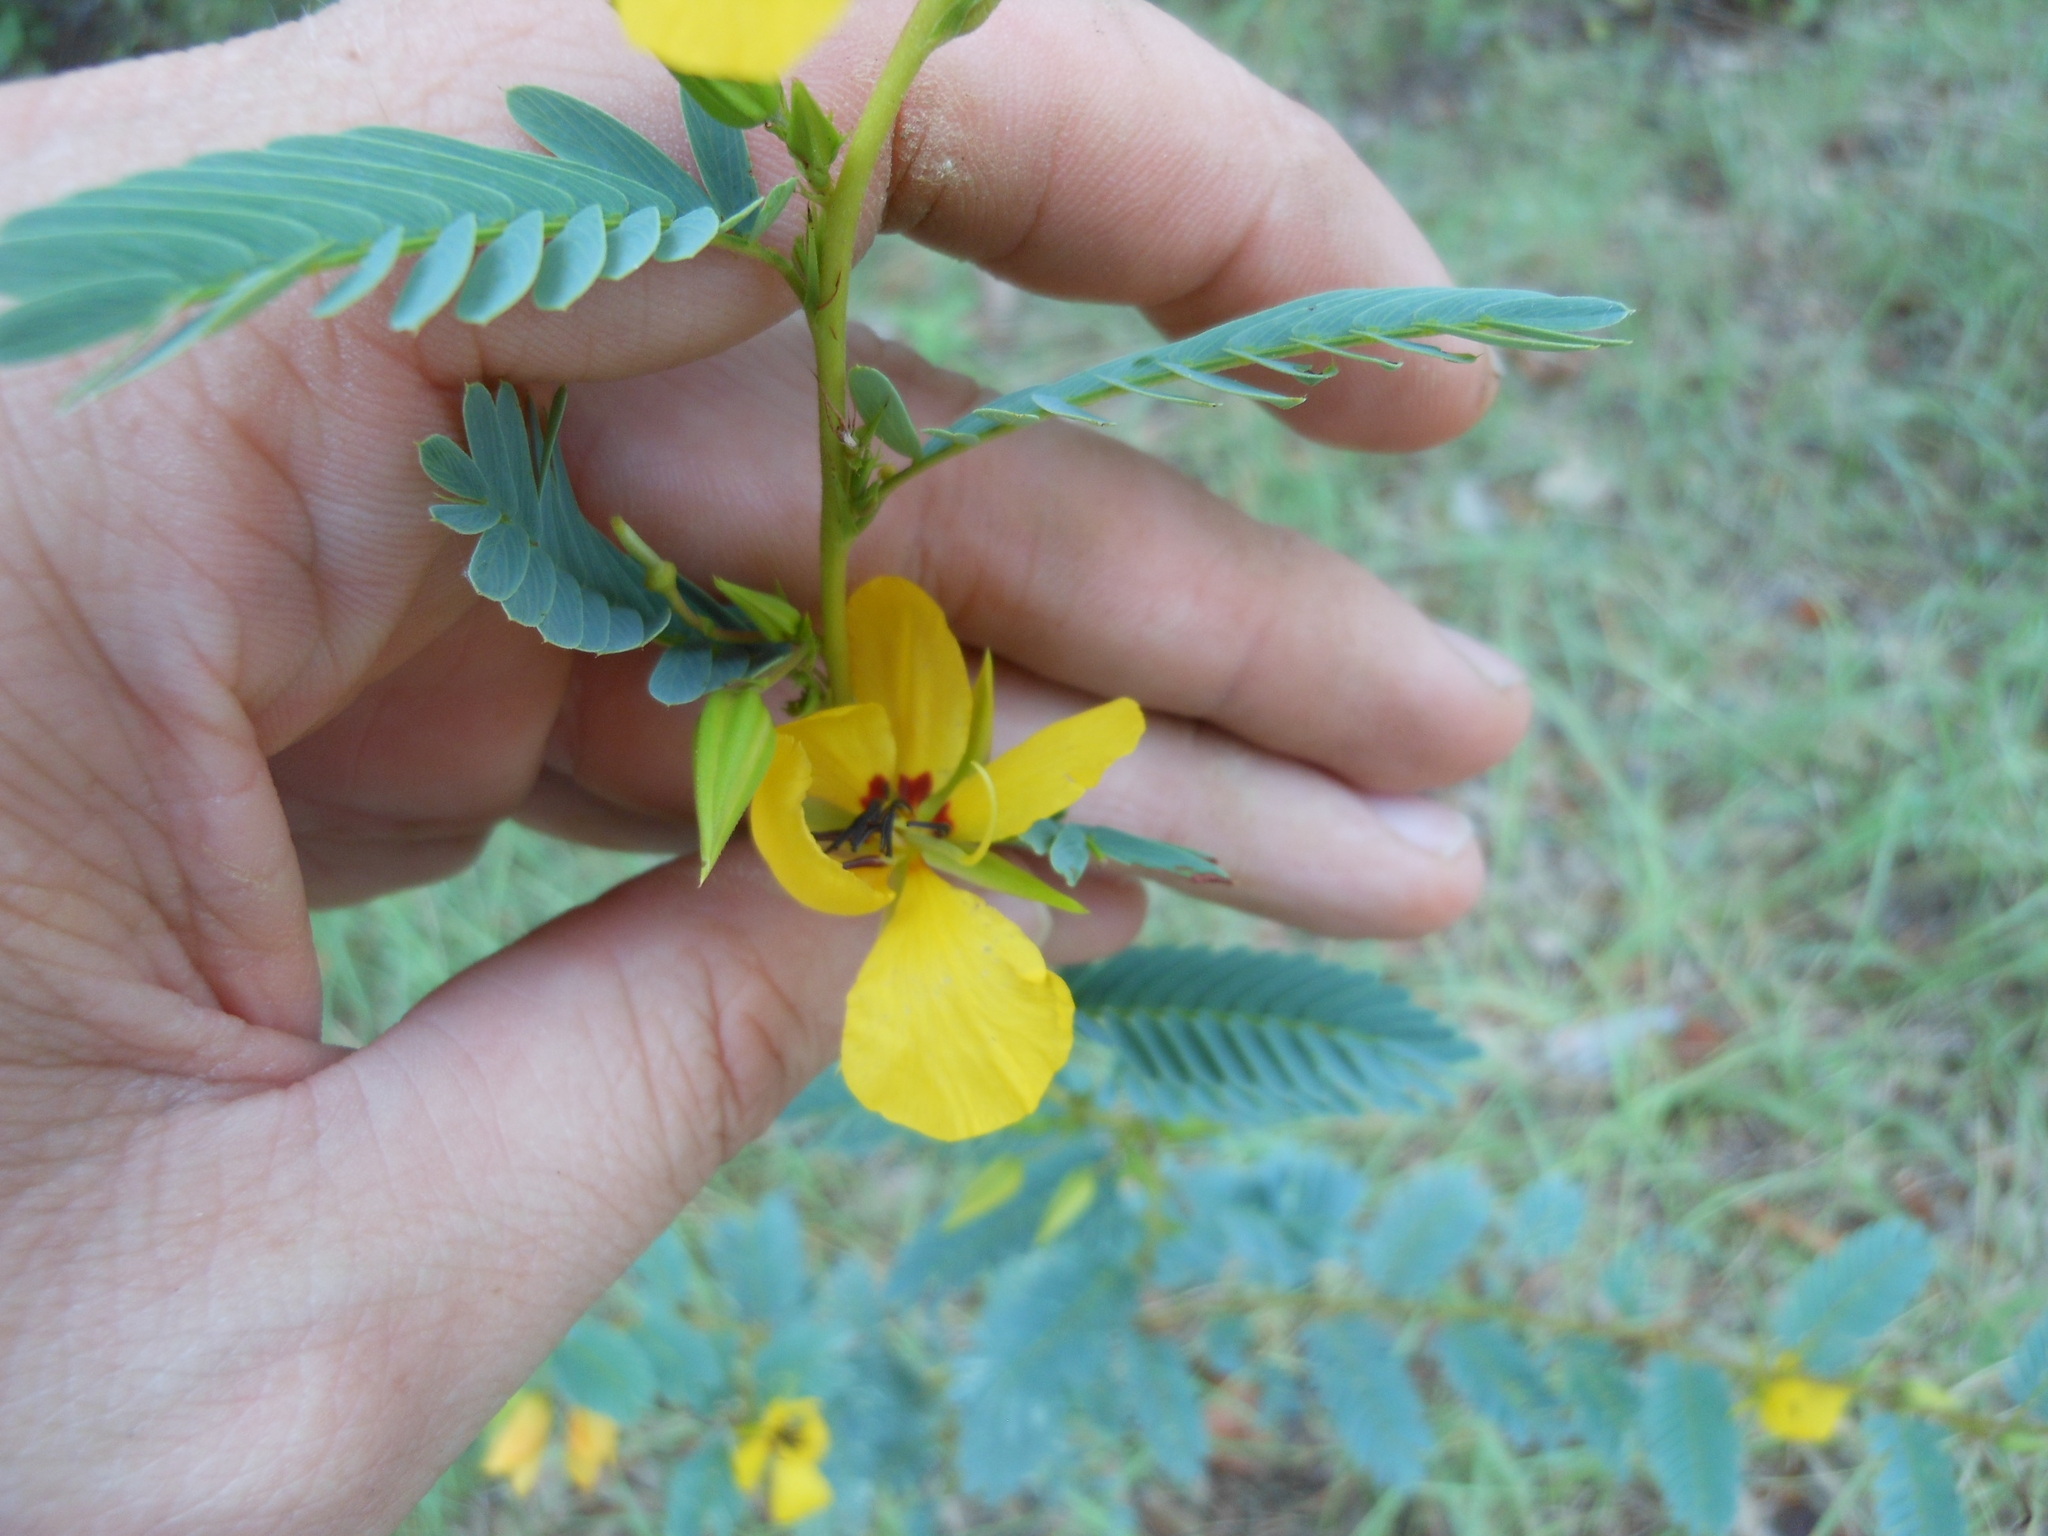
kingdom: Plantae
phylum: Tracheophyta
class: Magnoliopsida
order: Fabales
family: Fabaceae
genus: Chamaecrista
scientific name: Chamaecrista fasciculata
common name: Golden cassia
